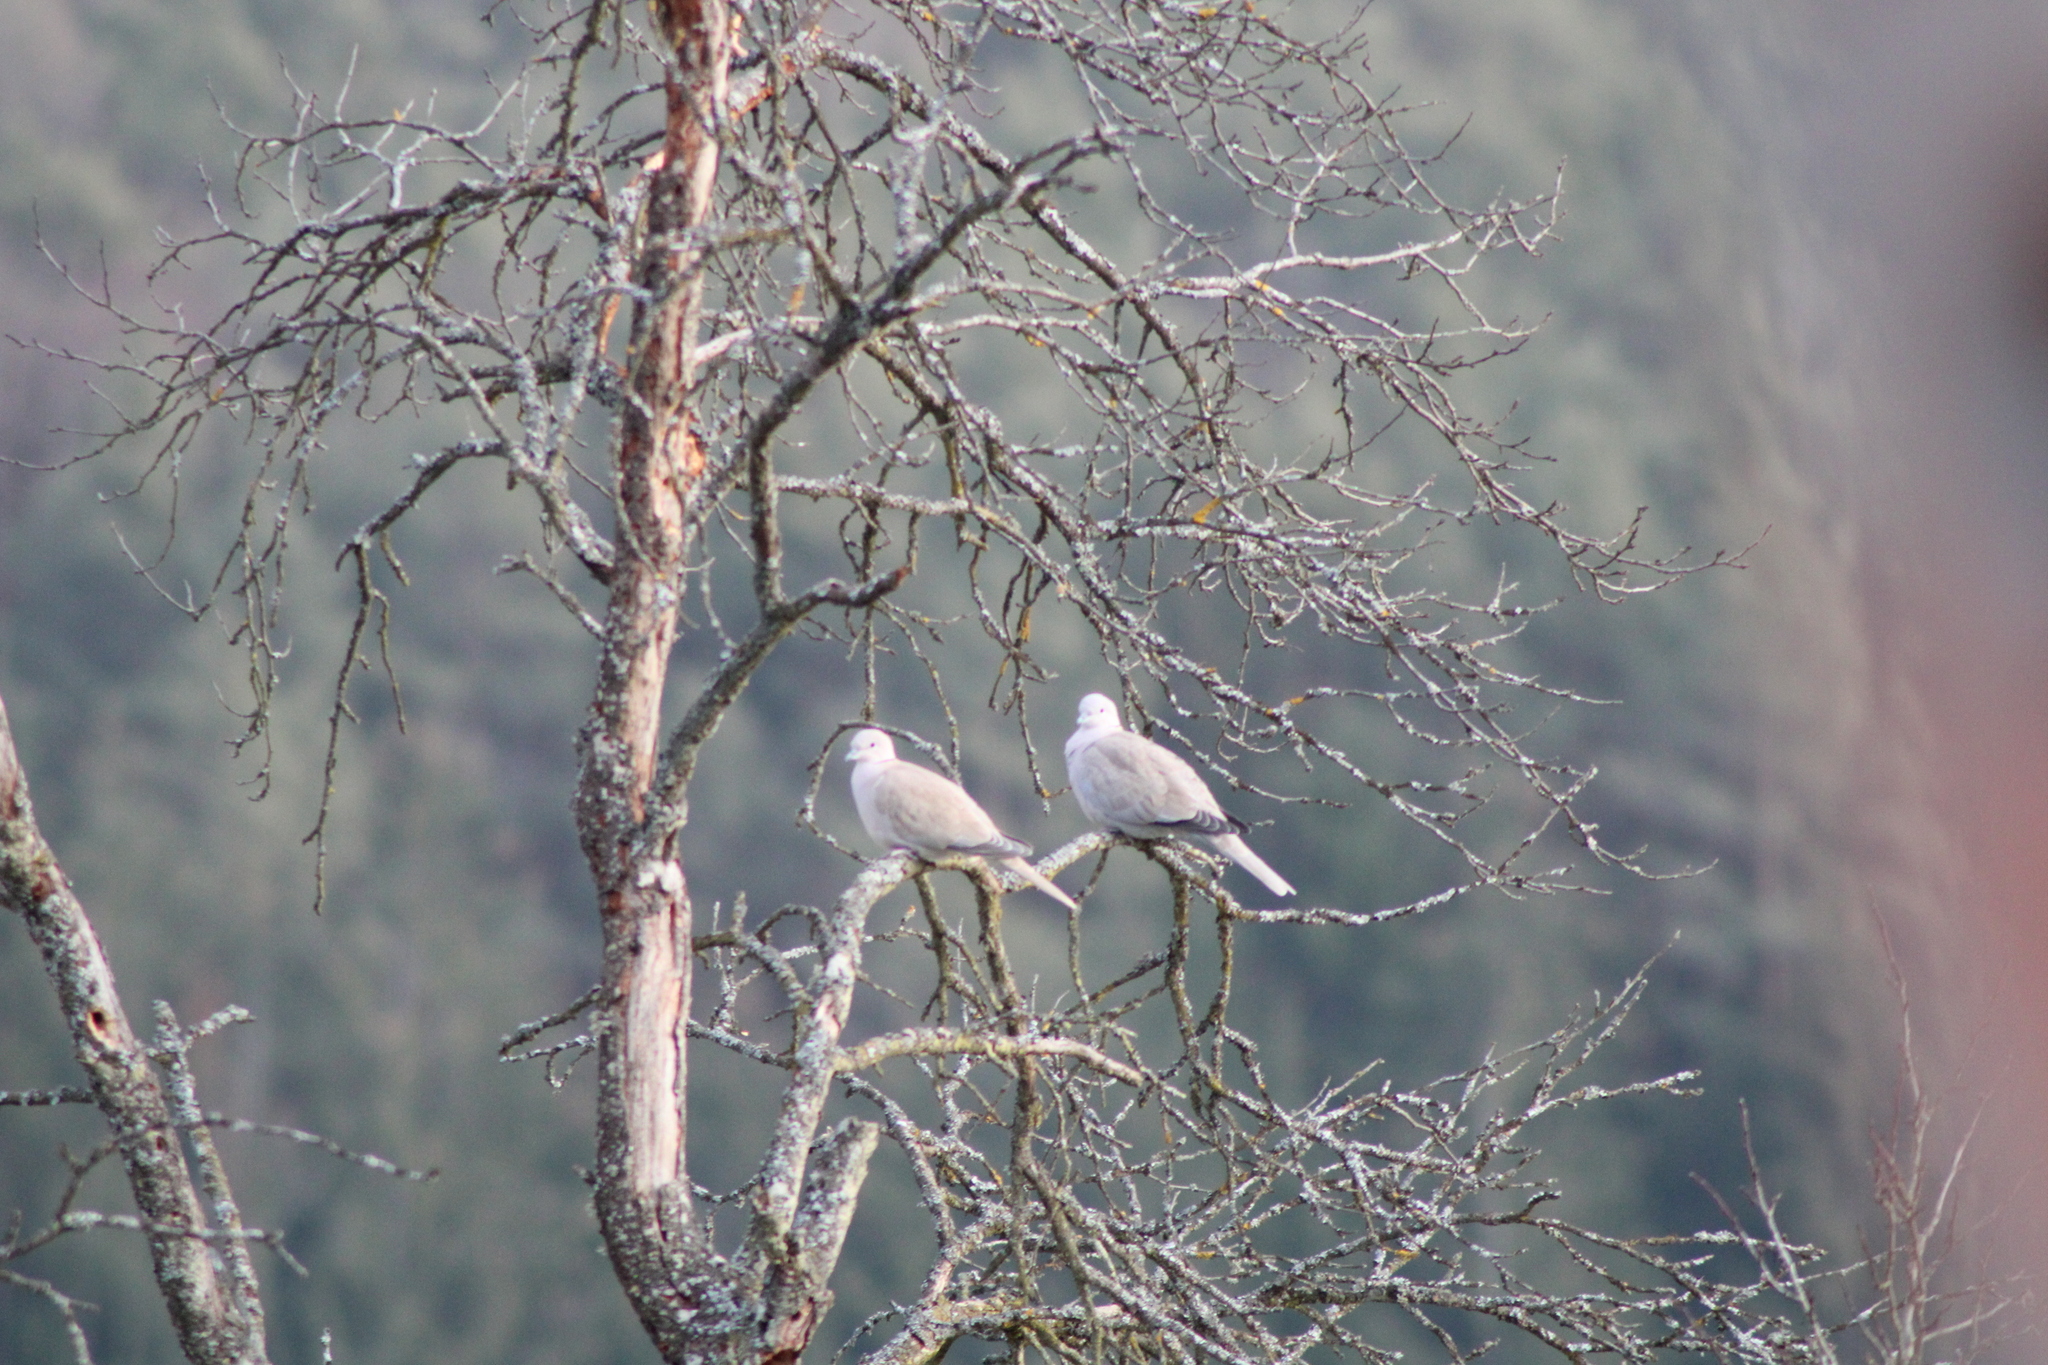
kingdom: Animalia
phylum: Chordata
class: Aves
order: Columbiformes
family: Columbidae
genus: Streptopelia
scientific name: Streptopelia decaocto
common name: Eurasian collared dove
